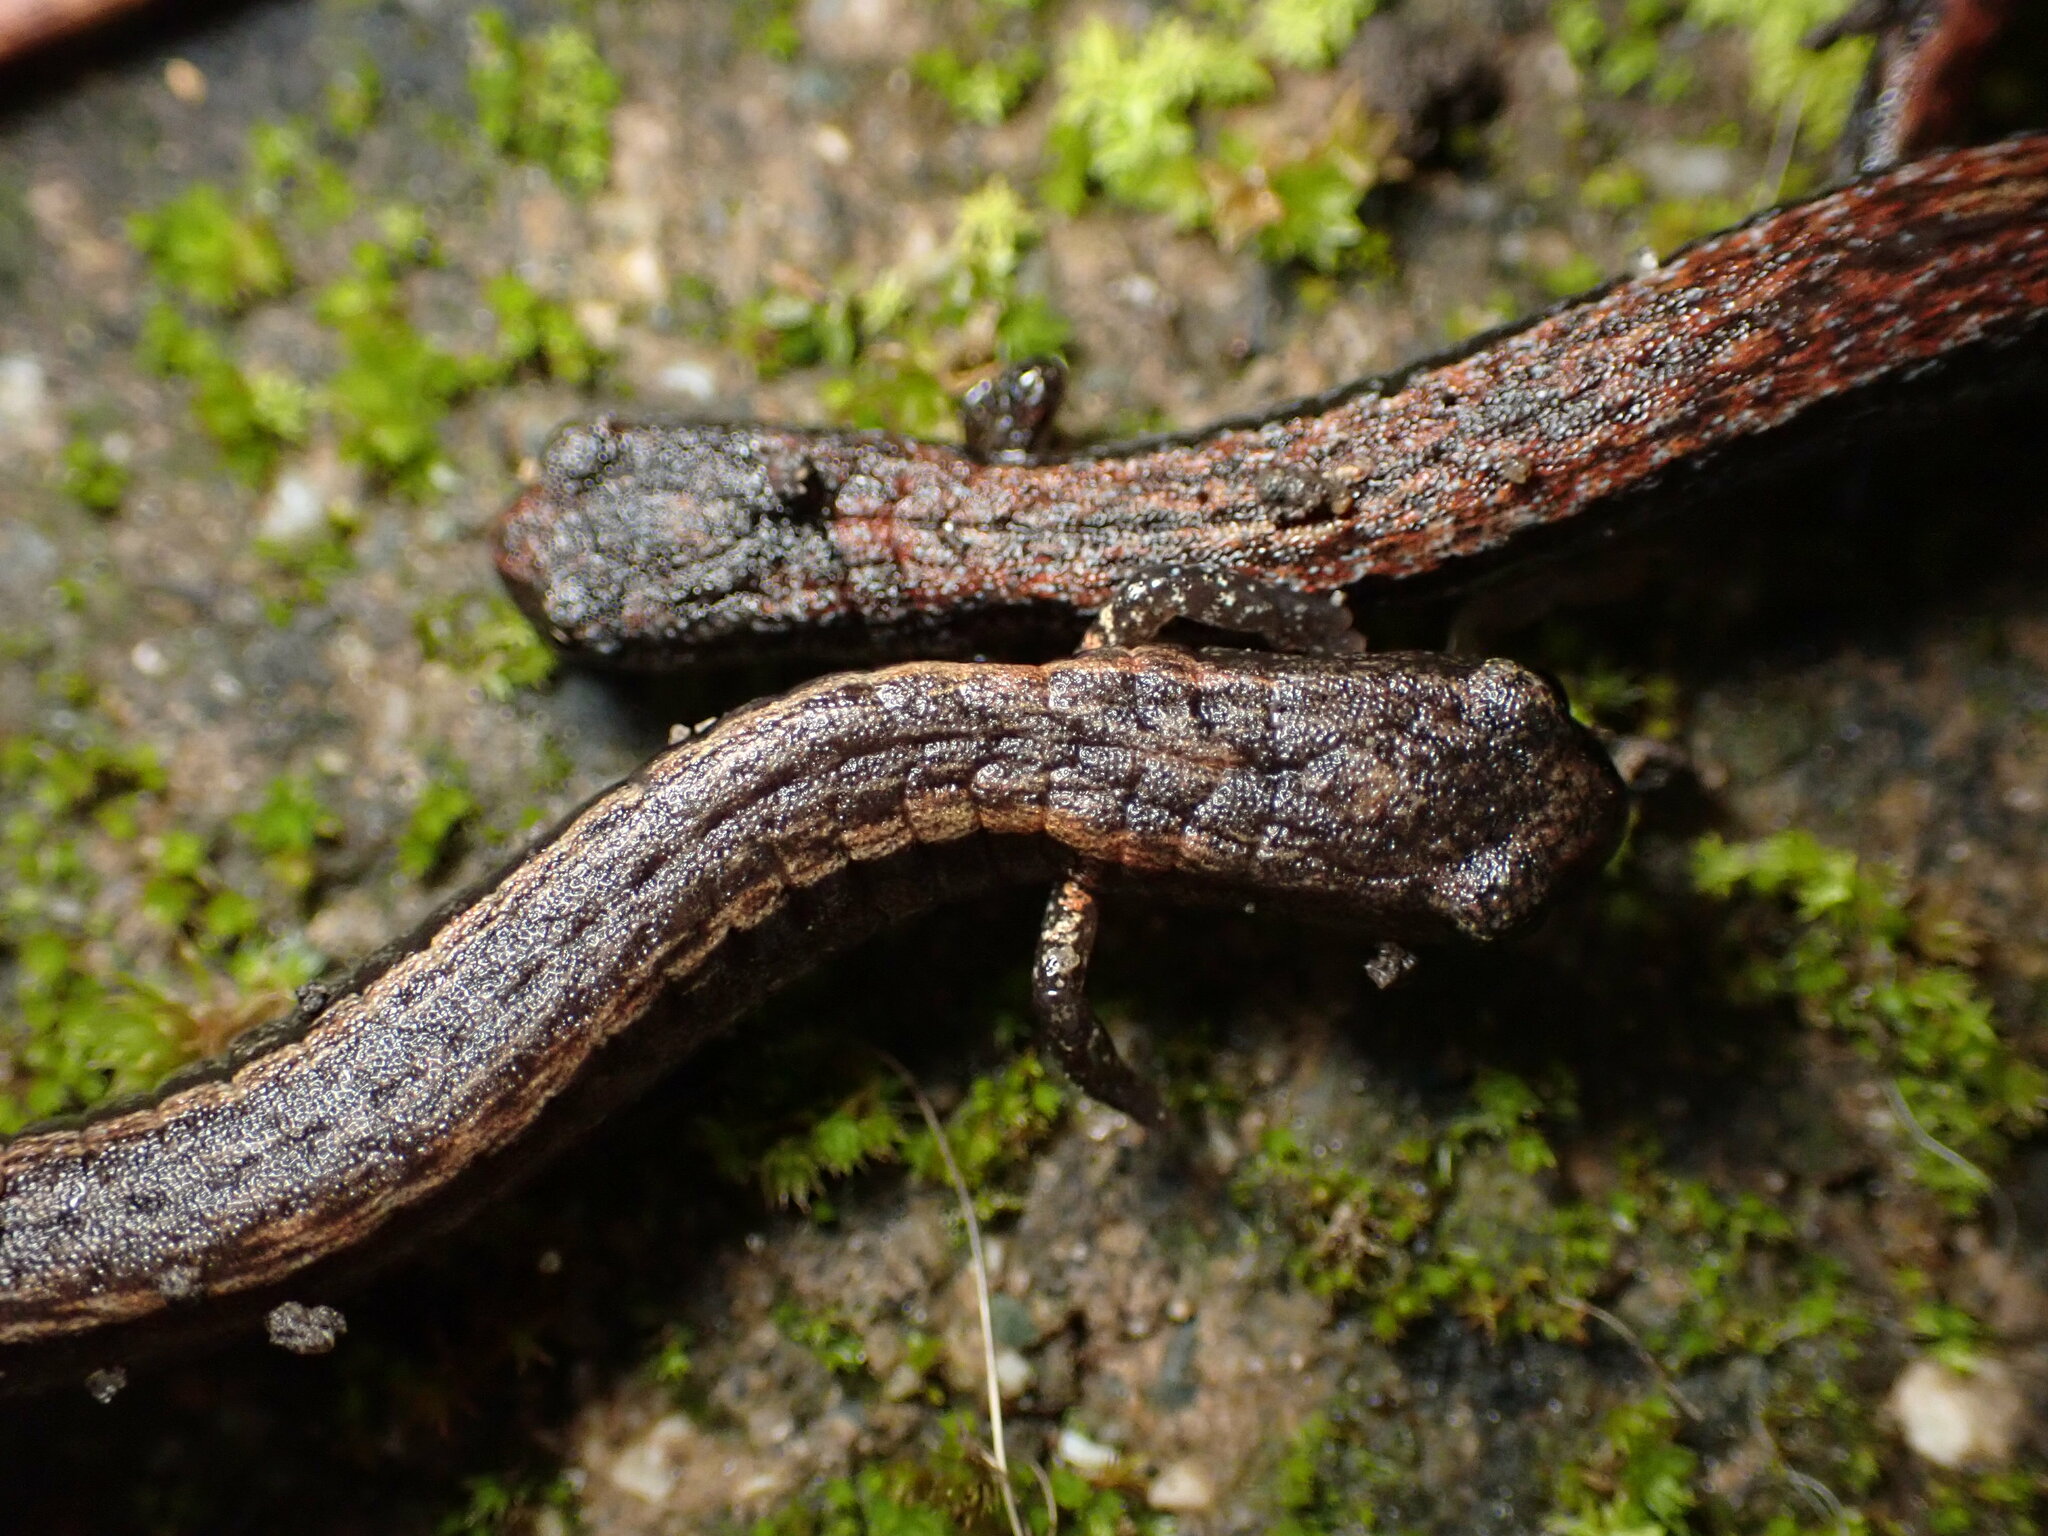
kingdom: Animalia
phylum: Chordata
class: Amphibia
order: Caudata
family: Plethodontidae
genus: Batrachoseps
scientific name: Batrachoseps attenuatus
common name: California slender salamander
